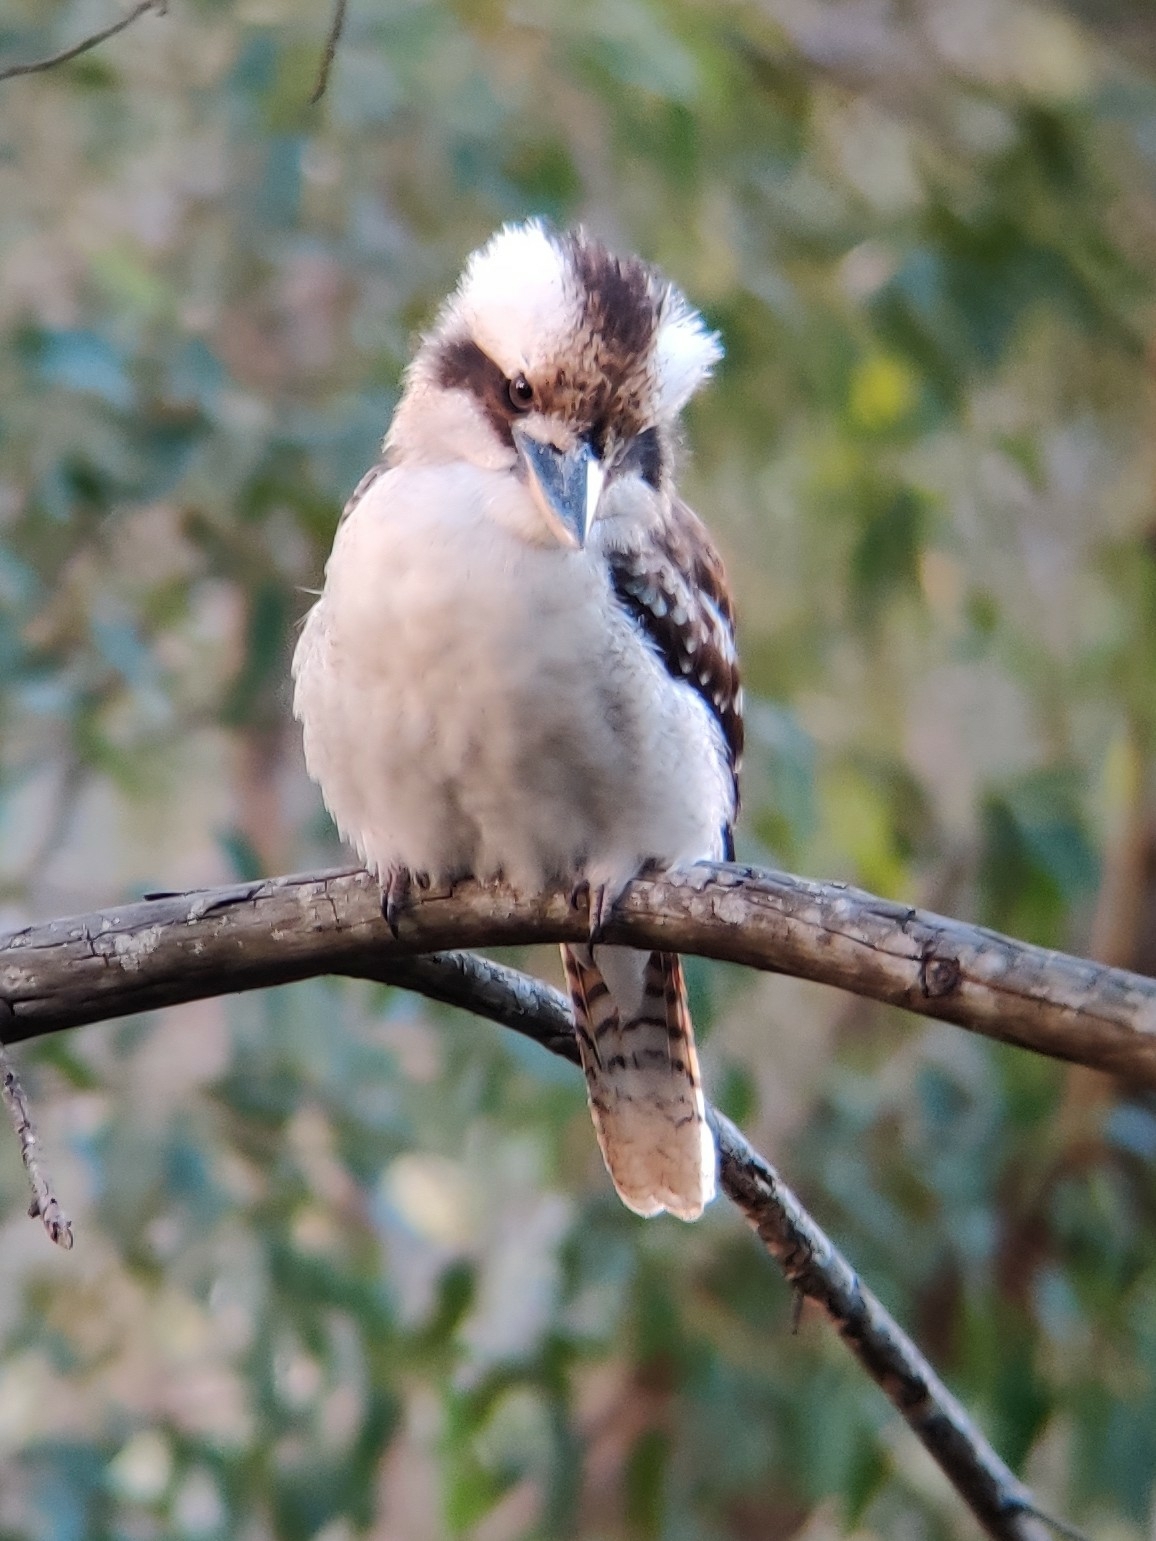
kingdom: Animalia
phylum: Chordata
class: Aves
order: Coraciiformes
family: Alcedinidae
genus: Dacelo
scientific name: Dacelo novaeguineae
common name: Laughing kookaburra
